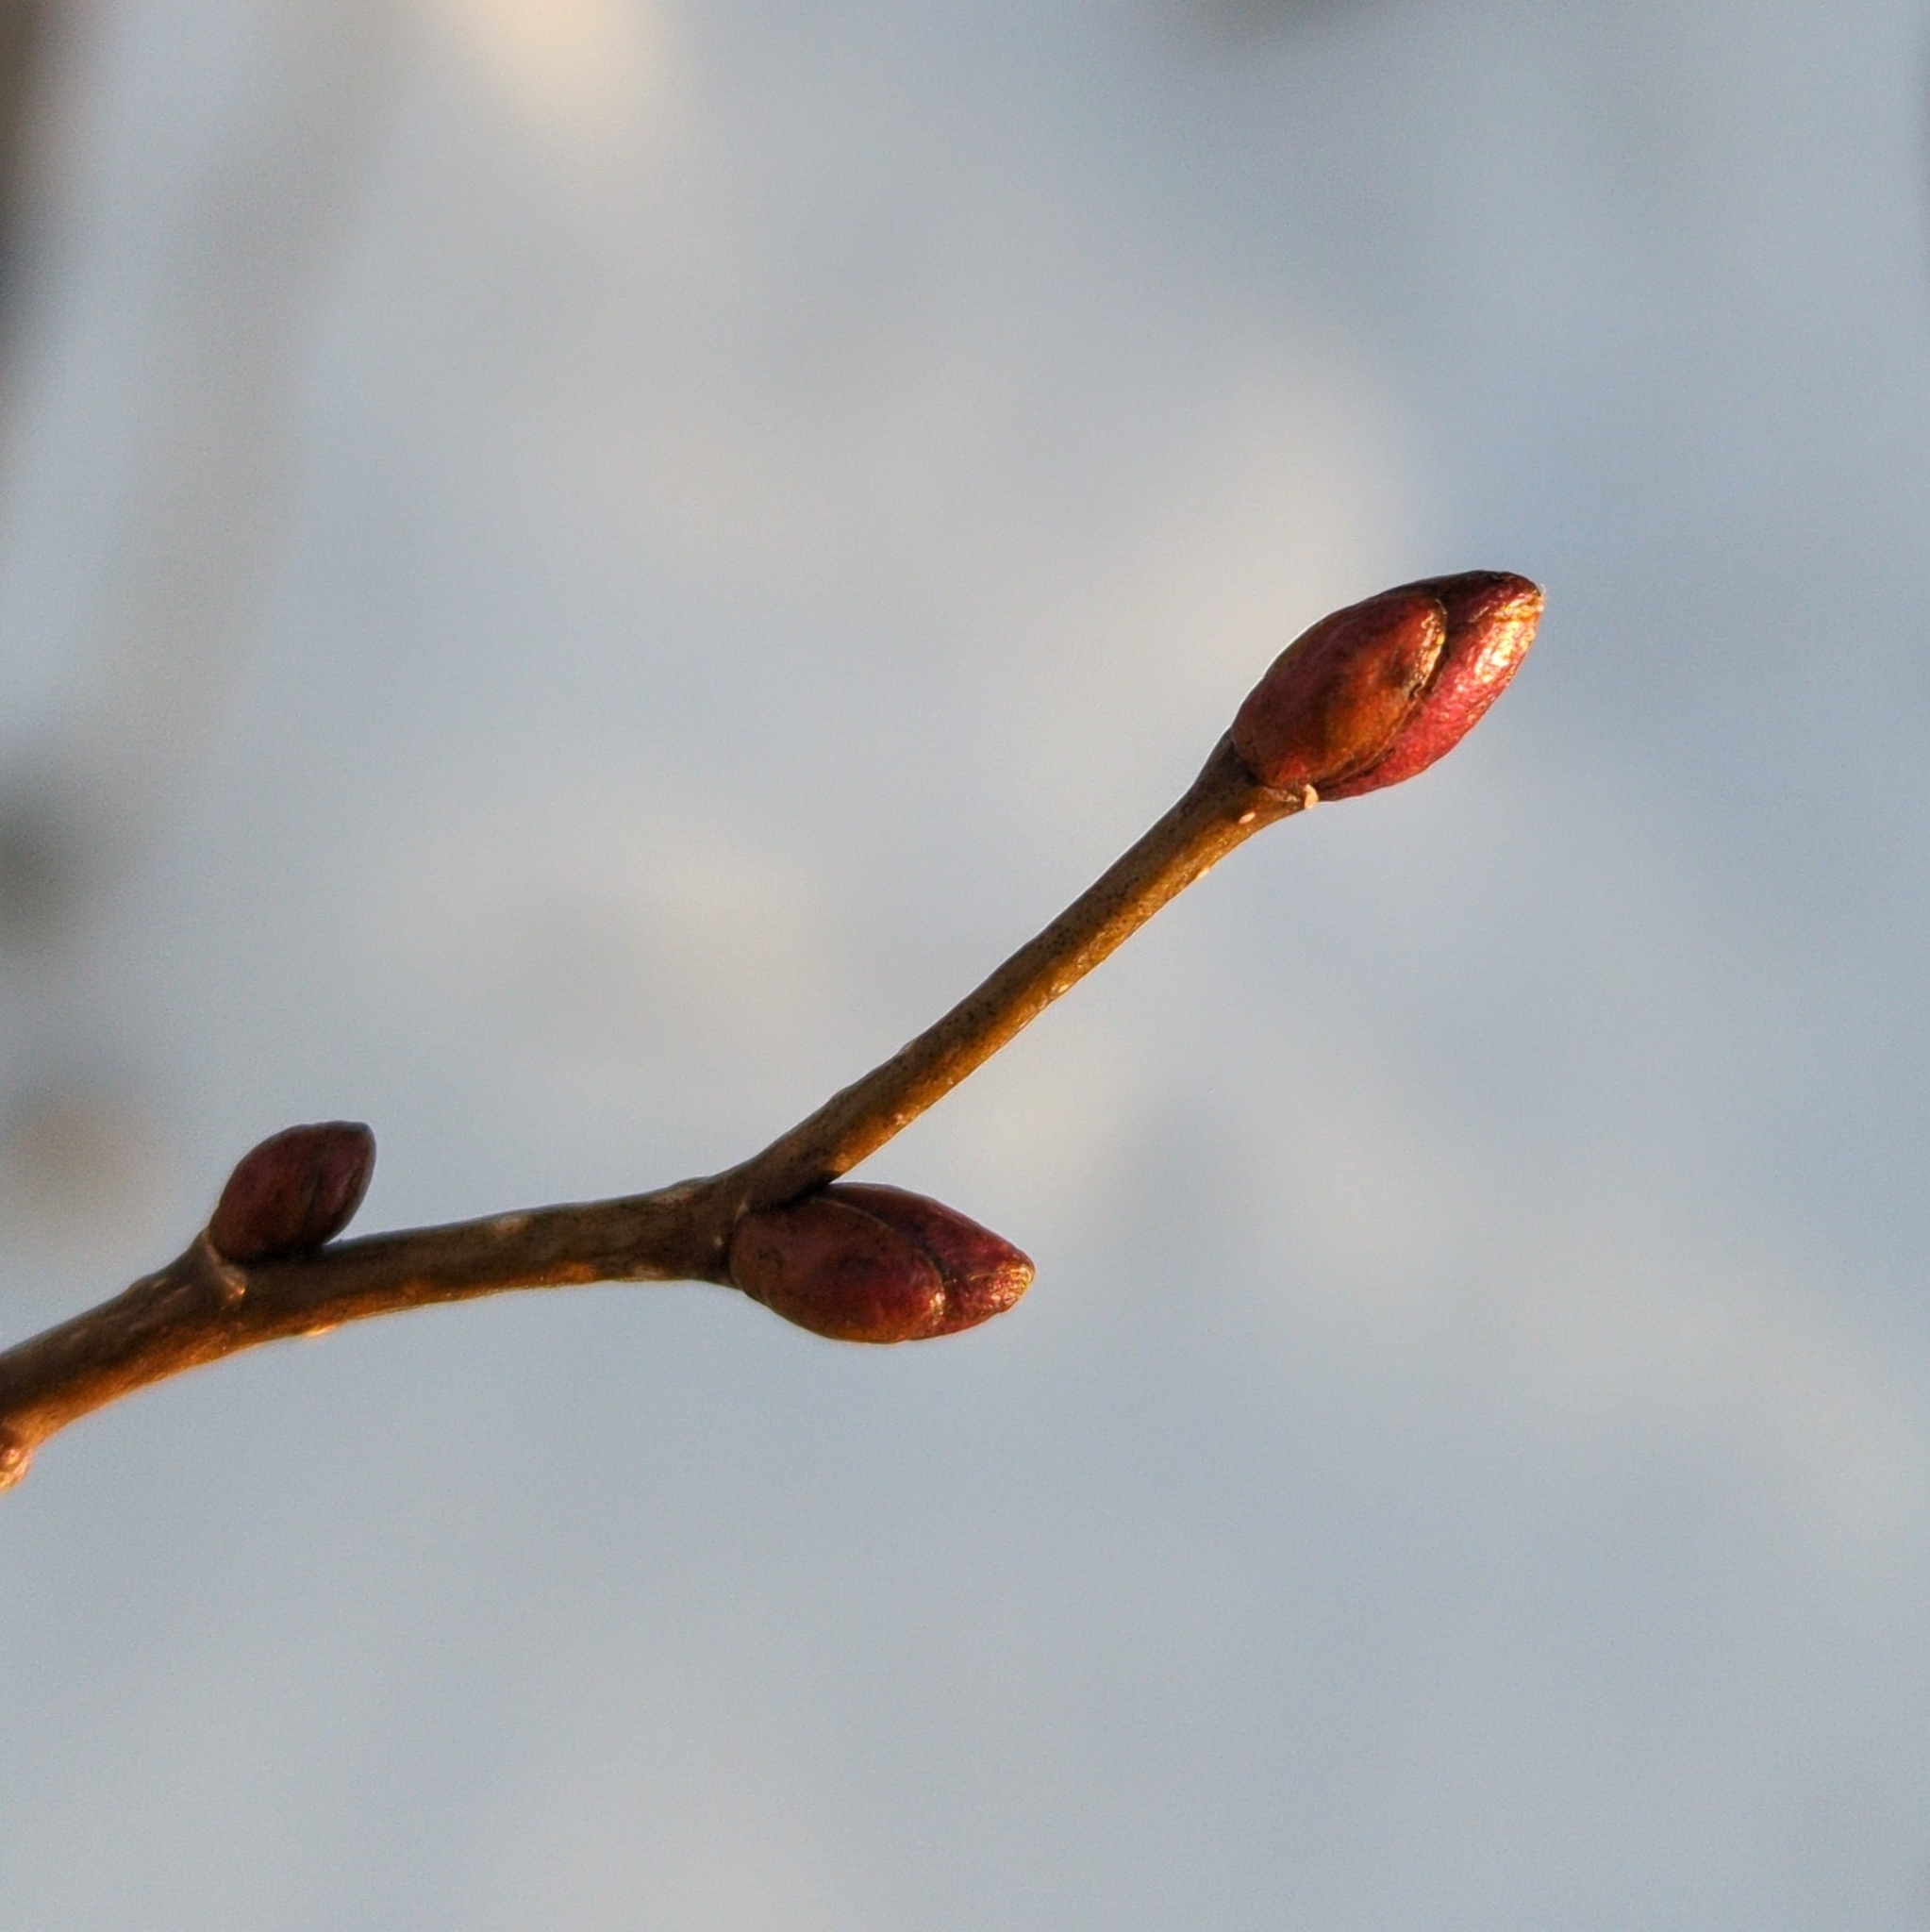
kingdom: Plantae
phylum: Tracheophyta
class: Magnoliopsida
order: Malvales
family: Malvaceae
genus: Tilia
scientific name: Tilia americana
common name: Basswood
